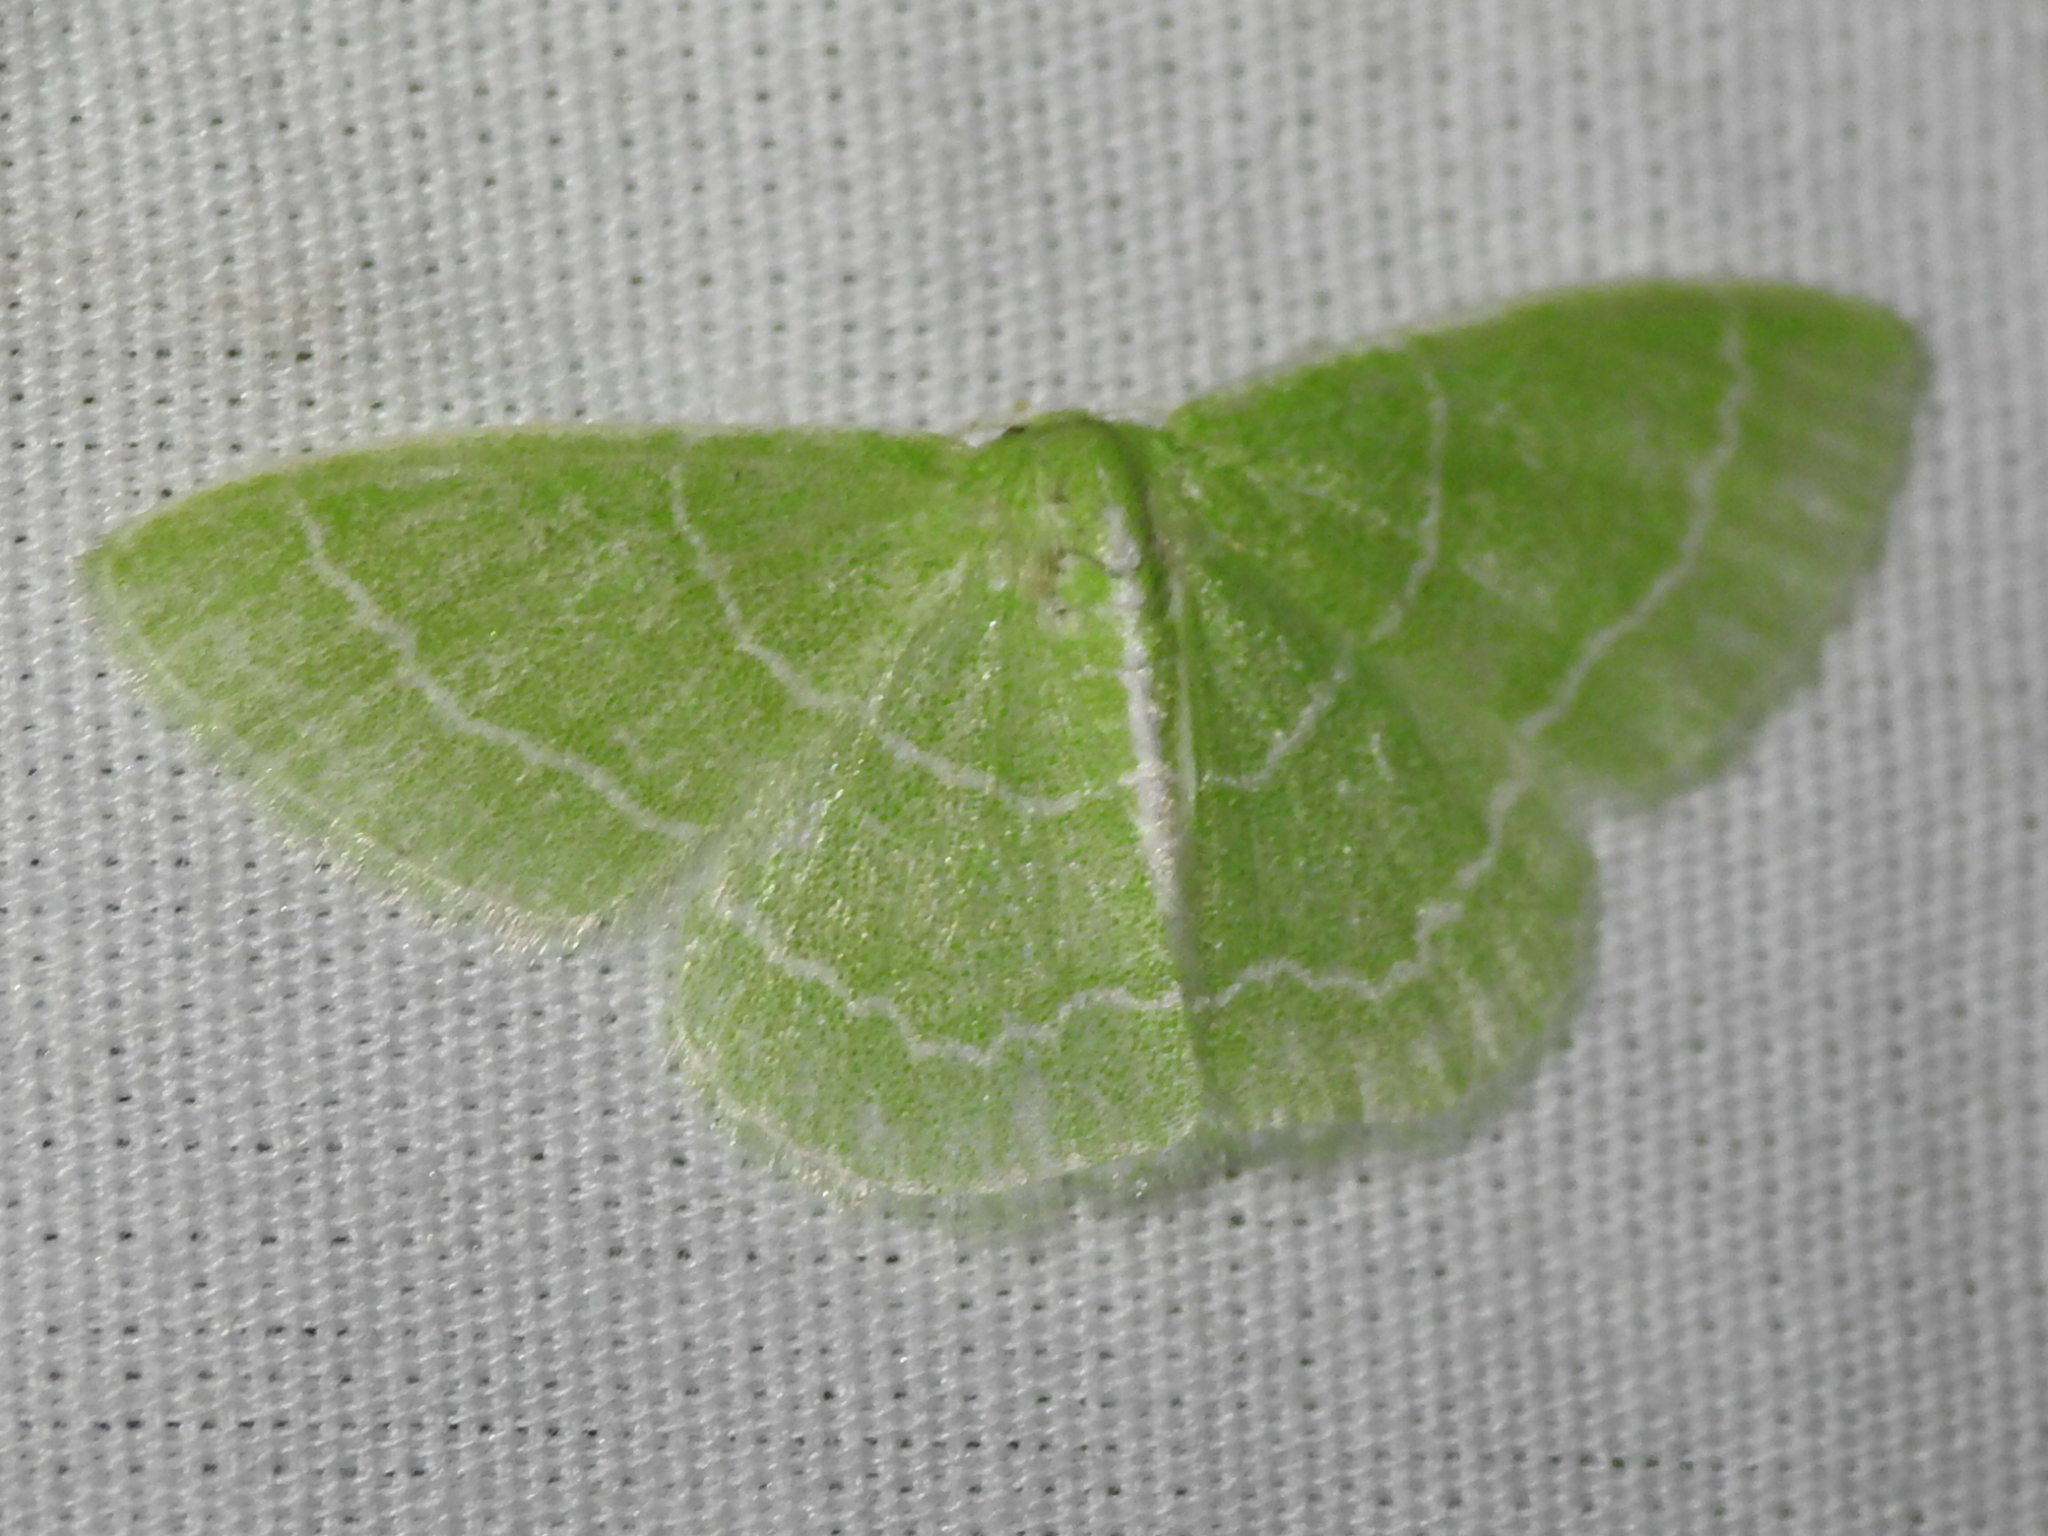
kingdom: Animalia
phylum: Arthropoda
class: Insecta
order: Lepidoptera
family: Geometridae
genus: Synchlora
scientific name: Synchlora aerata
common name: Wavy-lined emerald
